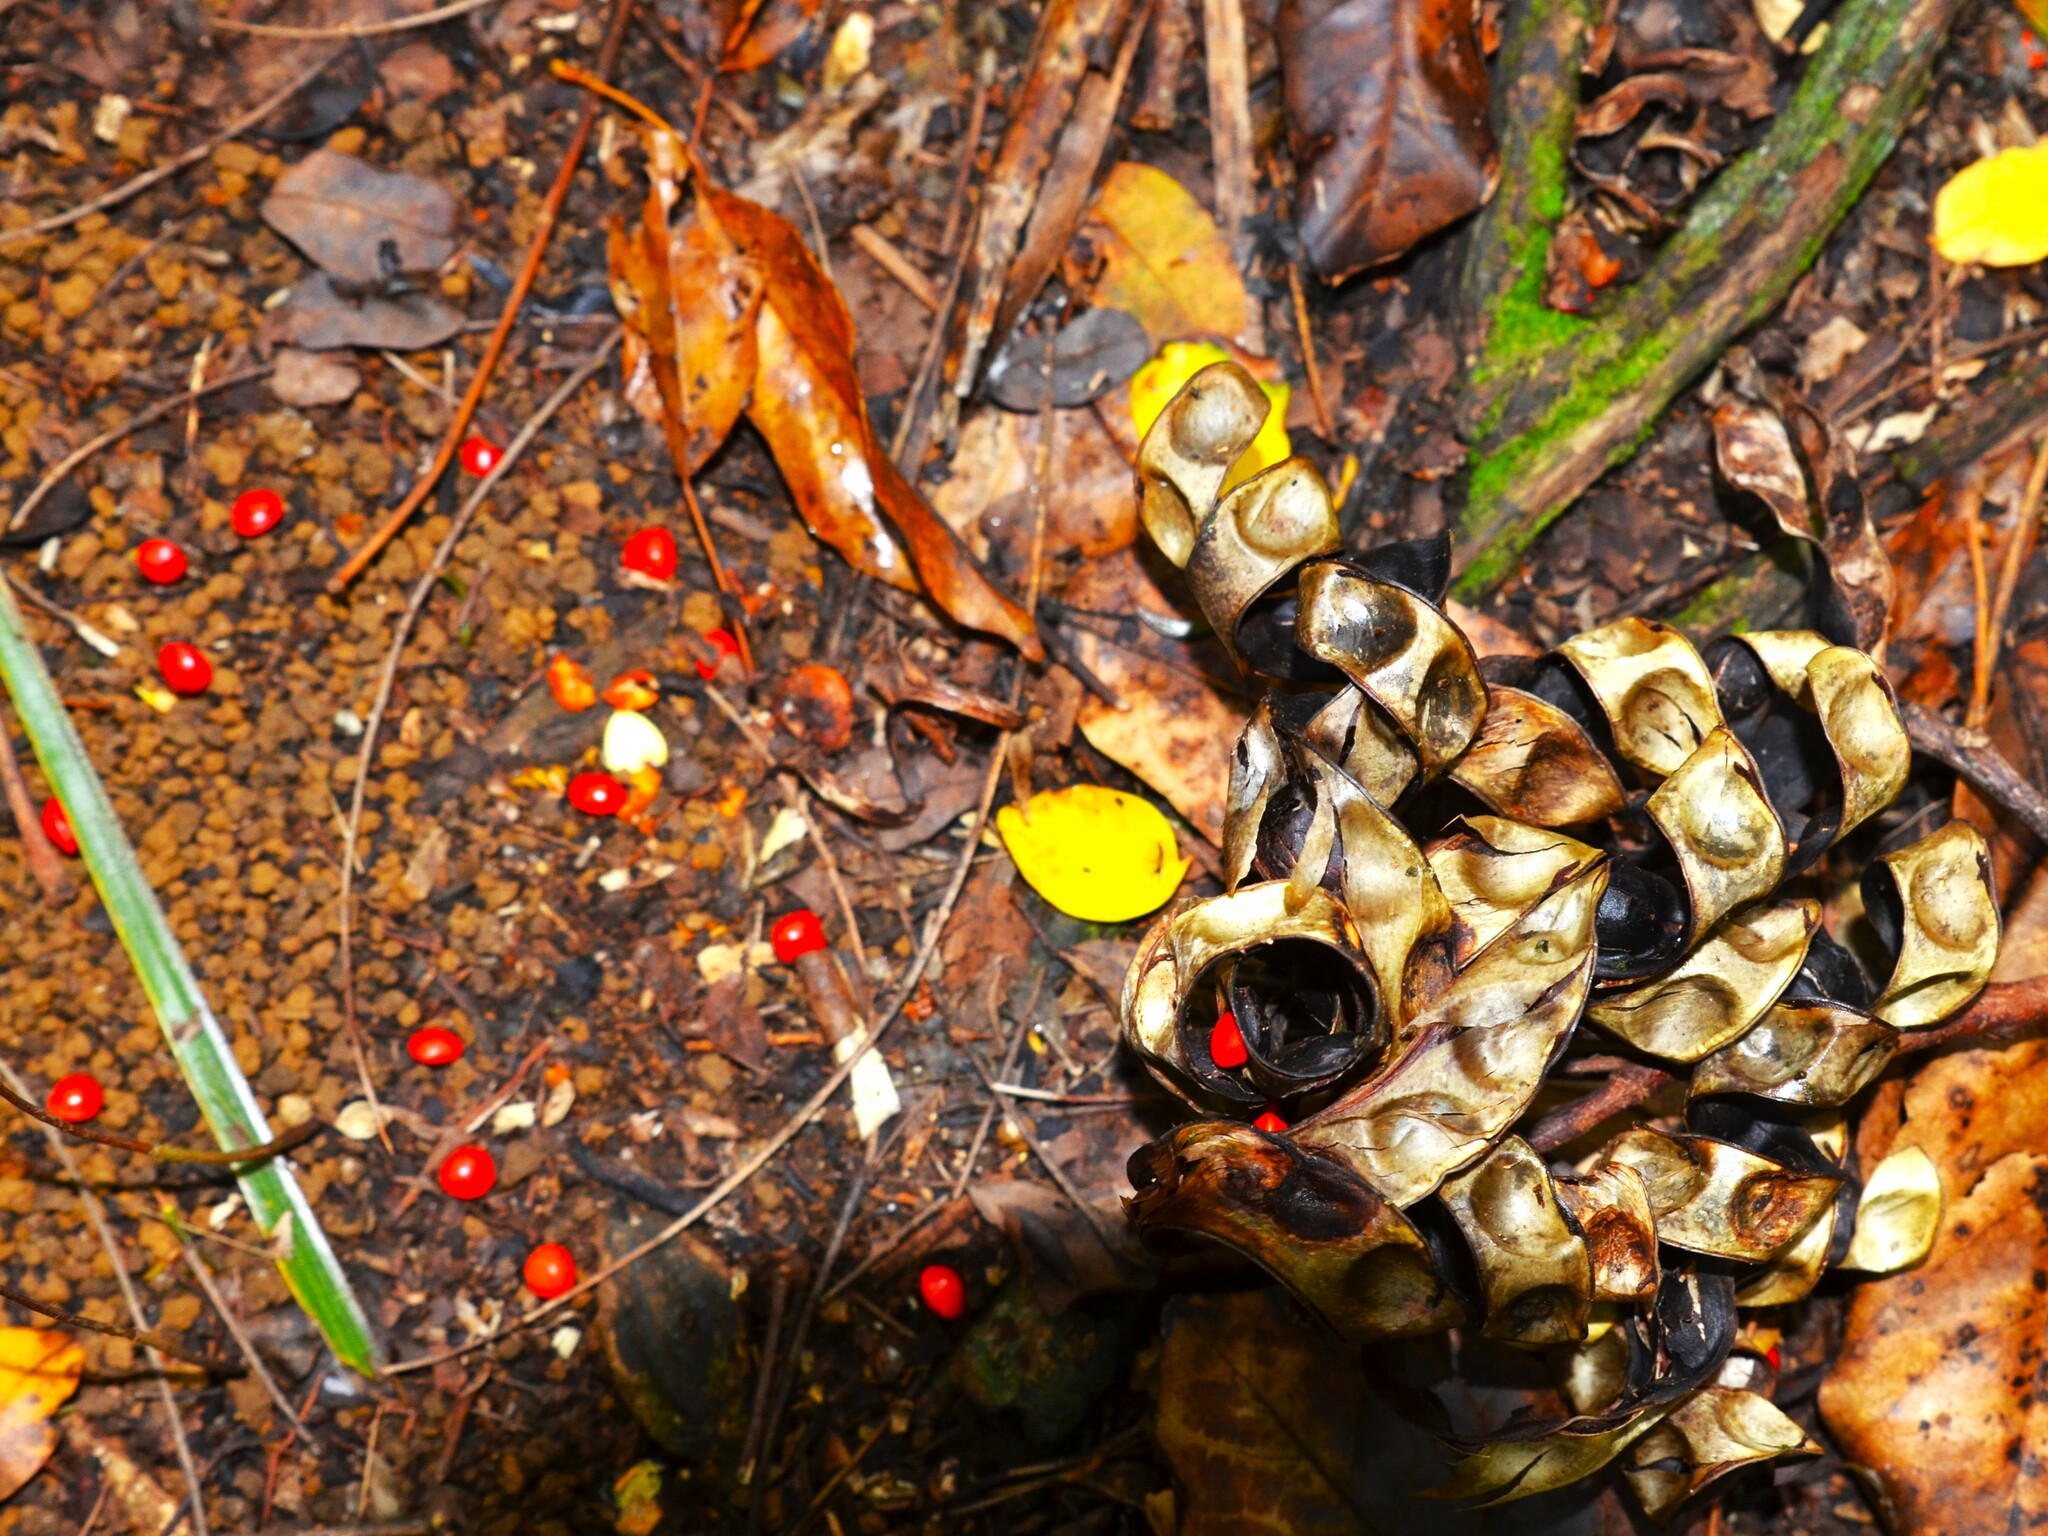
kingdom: Plantae
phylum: Tracheophyta
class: Magnoliopsida
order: Fabales
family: Fabaceae
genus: Adenanthera
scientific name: Adenanthera pavonina
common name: Red beadtree
